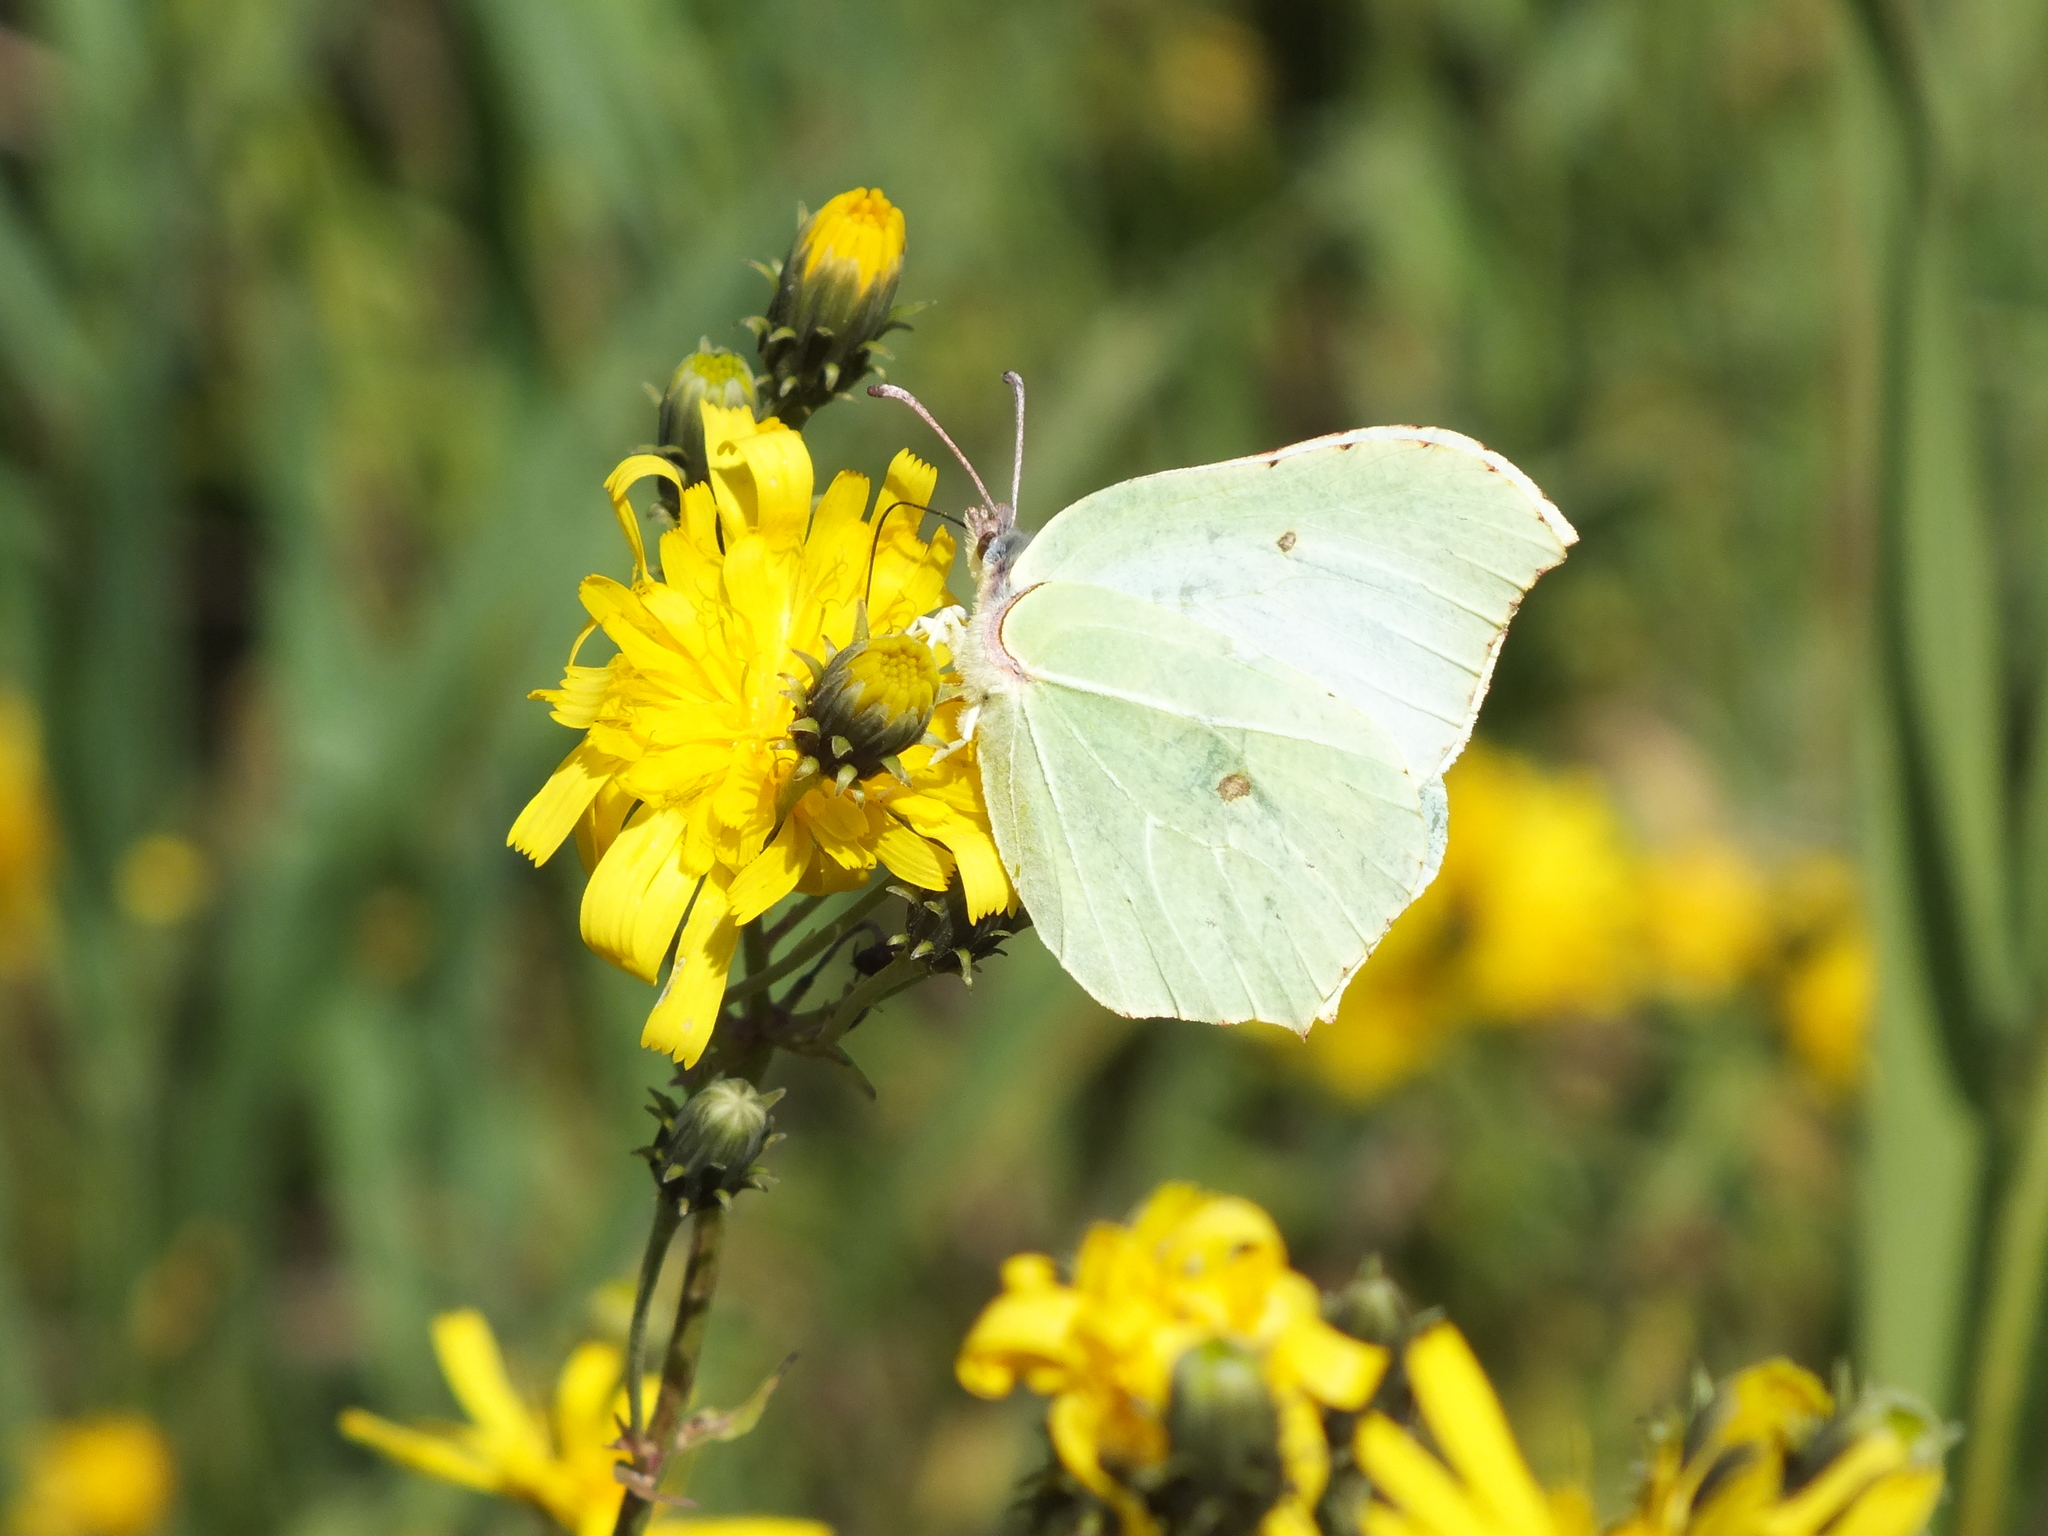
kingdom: Animalia
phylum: Arthropoda
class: Insecta
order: Lepidoptera
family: Pieridae
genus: Gonepteryx
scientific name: Gonepteryx rhamni
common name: Brimstone
